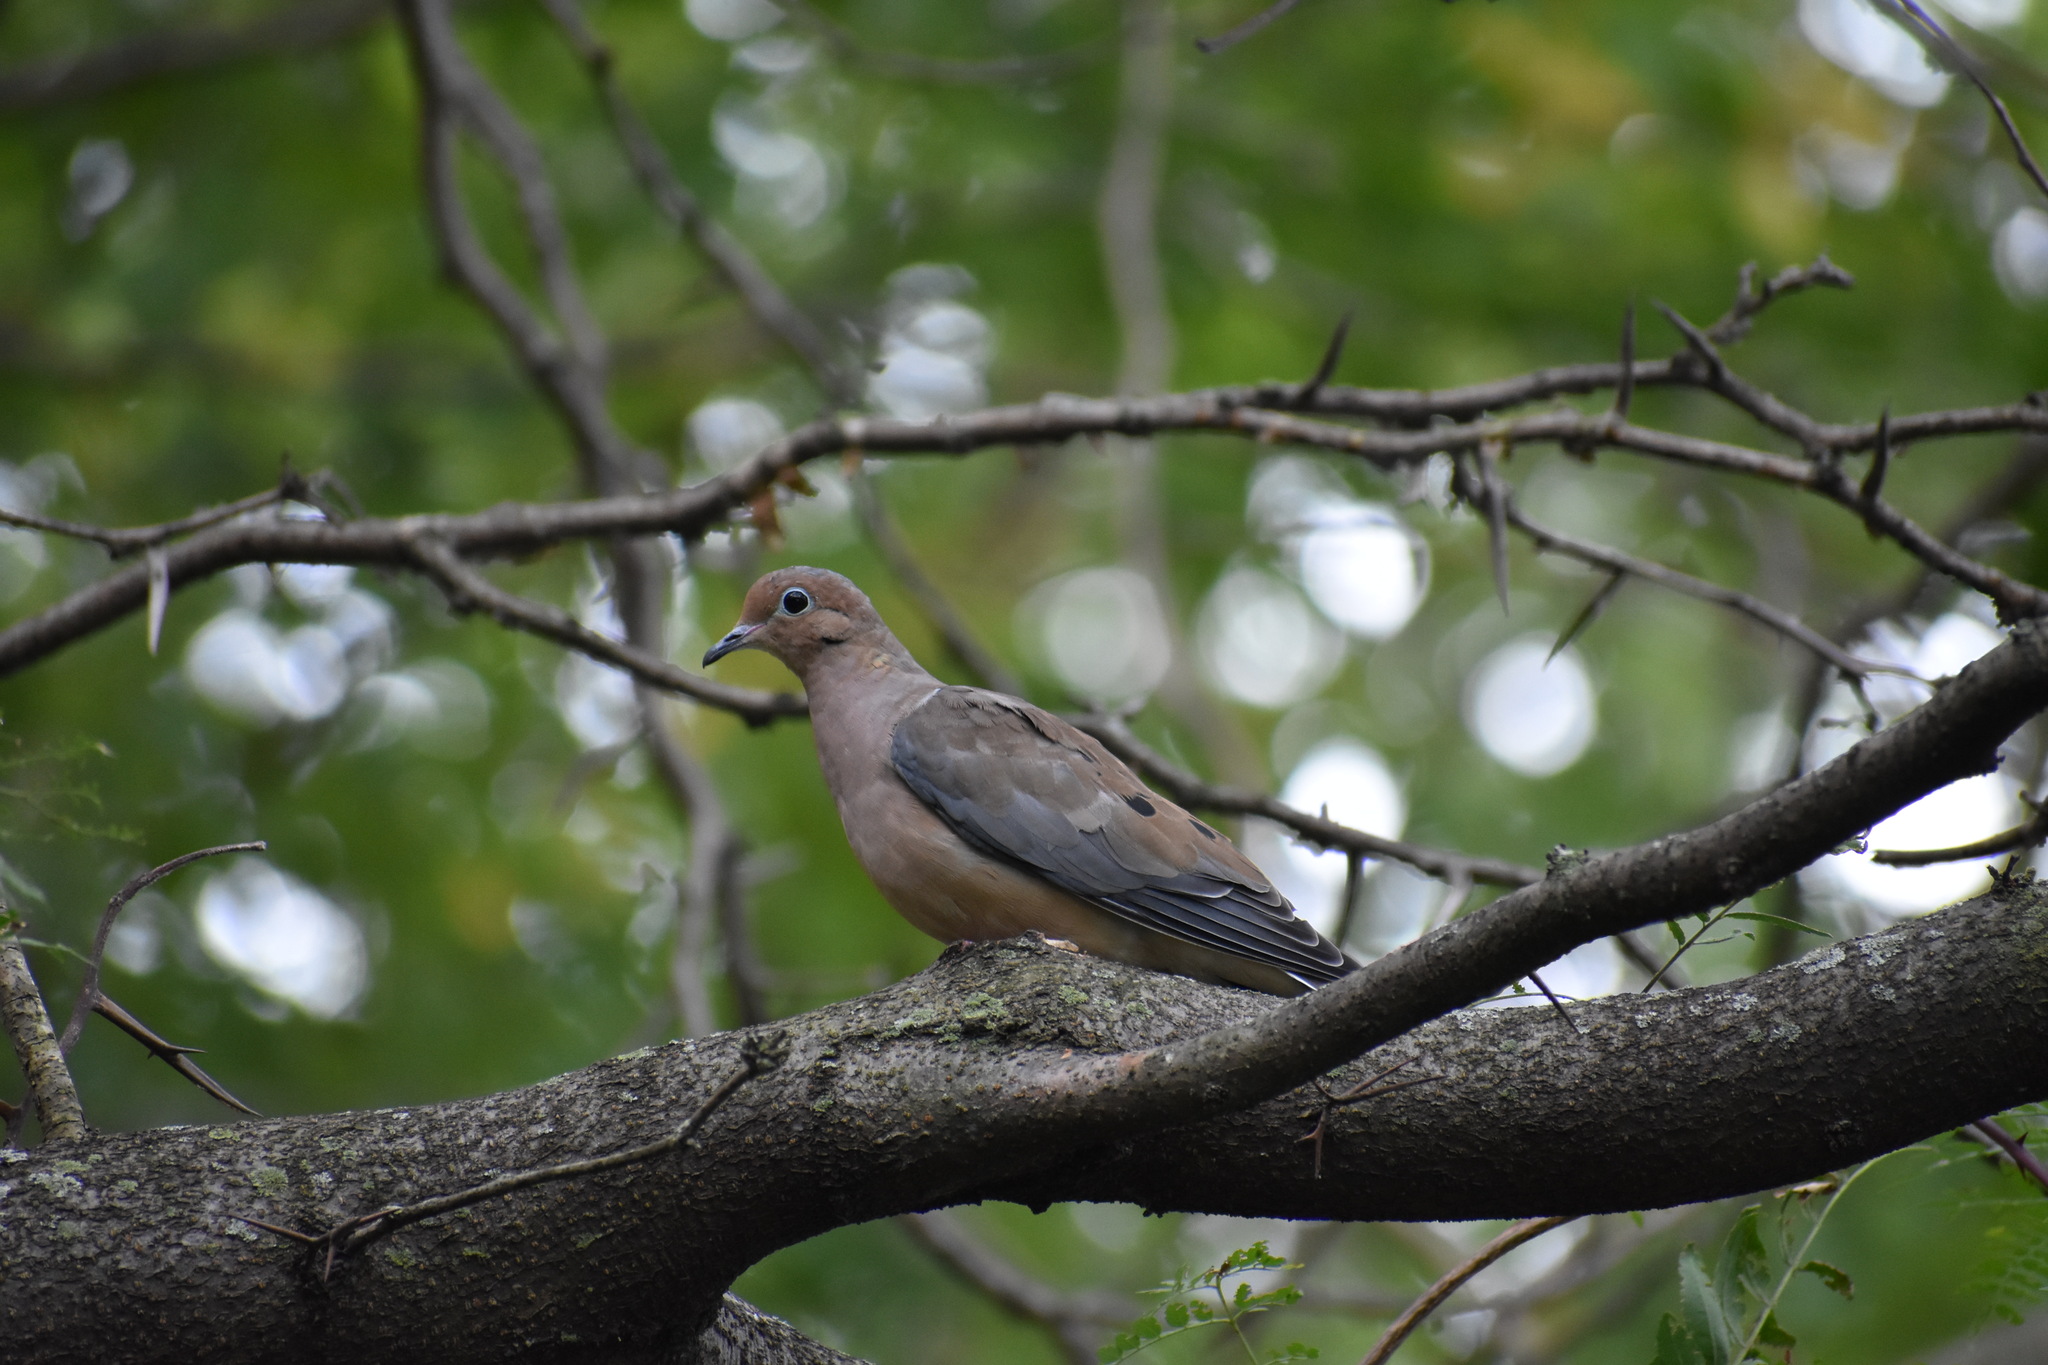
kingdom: Animalia
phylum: Chordata
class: Aves
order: Columbiformes
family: Columbidae
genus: Zenaida
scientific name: Zenaida macroura
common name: Mourning dove
